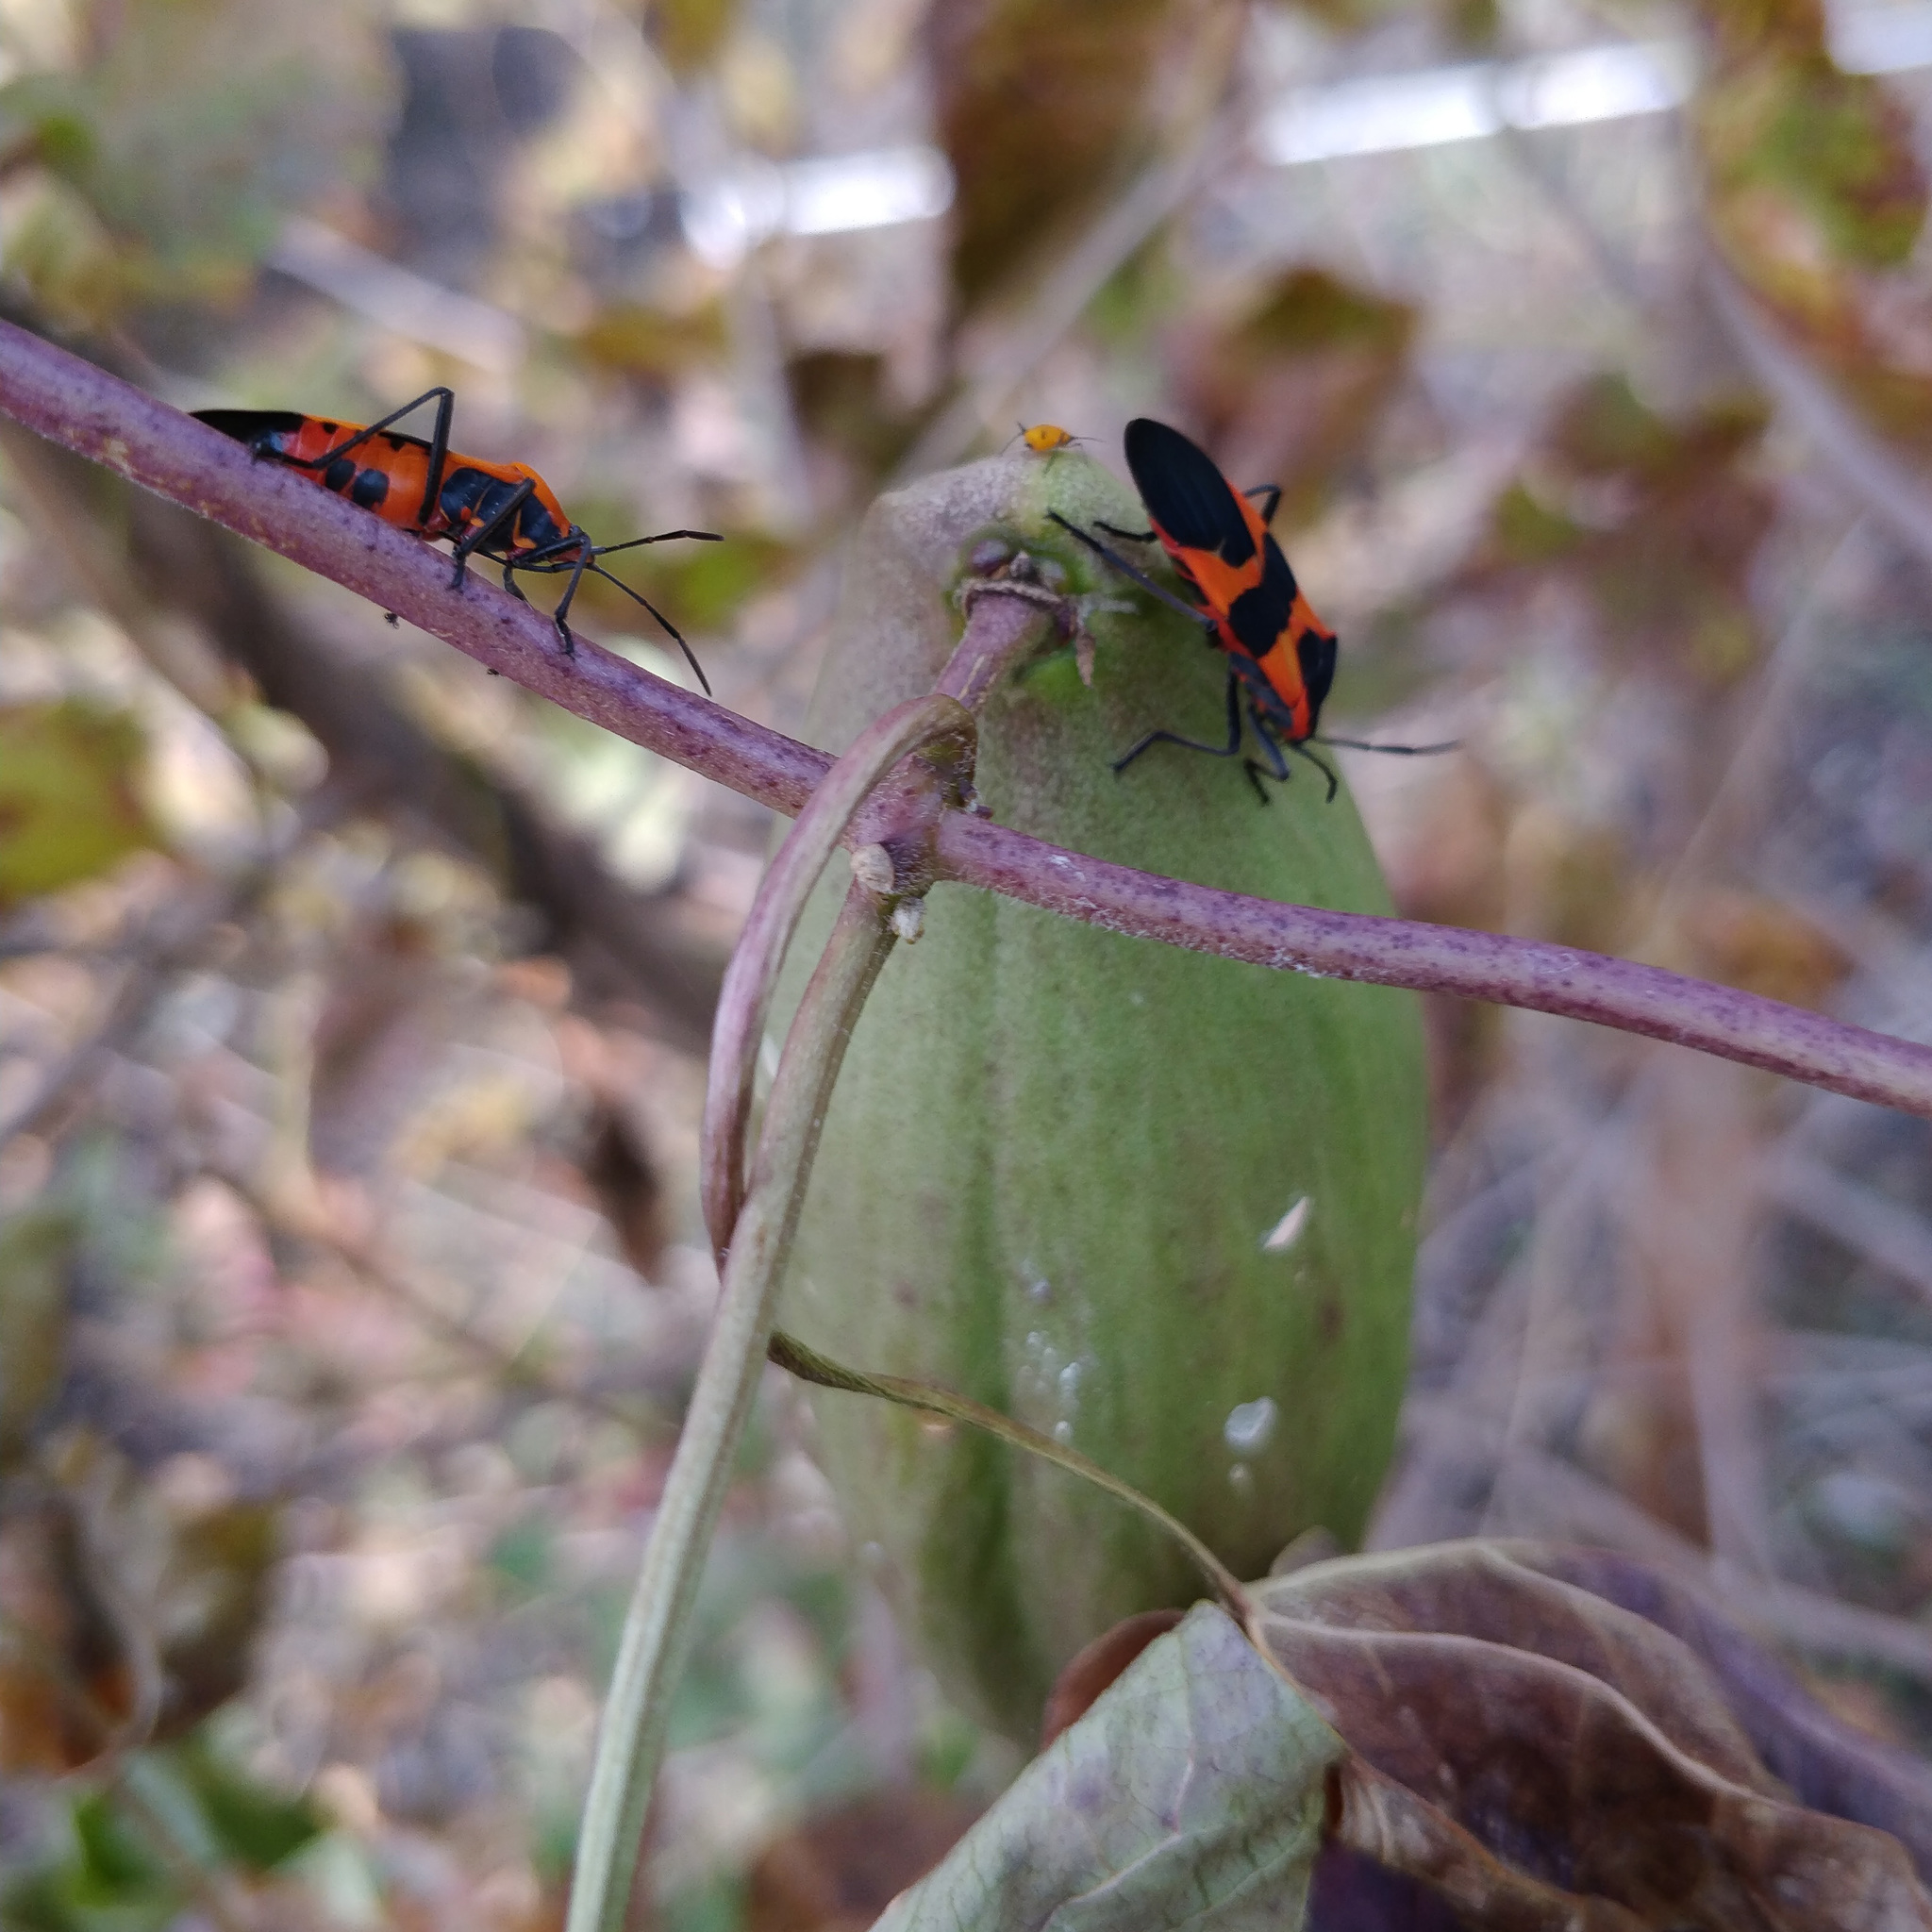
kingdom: Animalia
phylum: Arthropoda
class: Insecta
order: Hemiptera
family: Lygaeidae
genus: Oncopeltus
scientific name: Oncopeltus fasciatus
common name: Large milkweed bug
